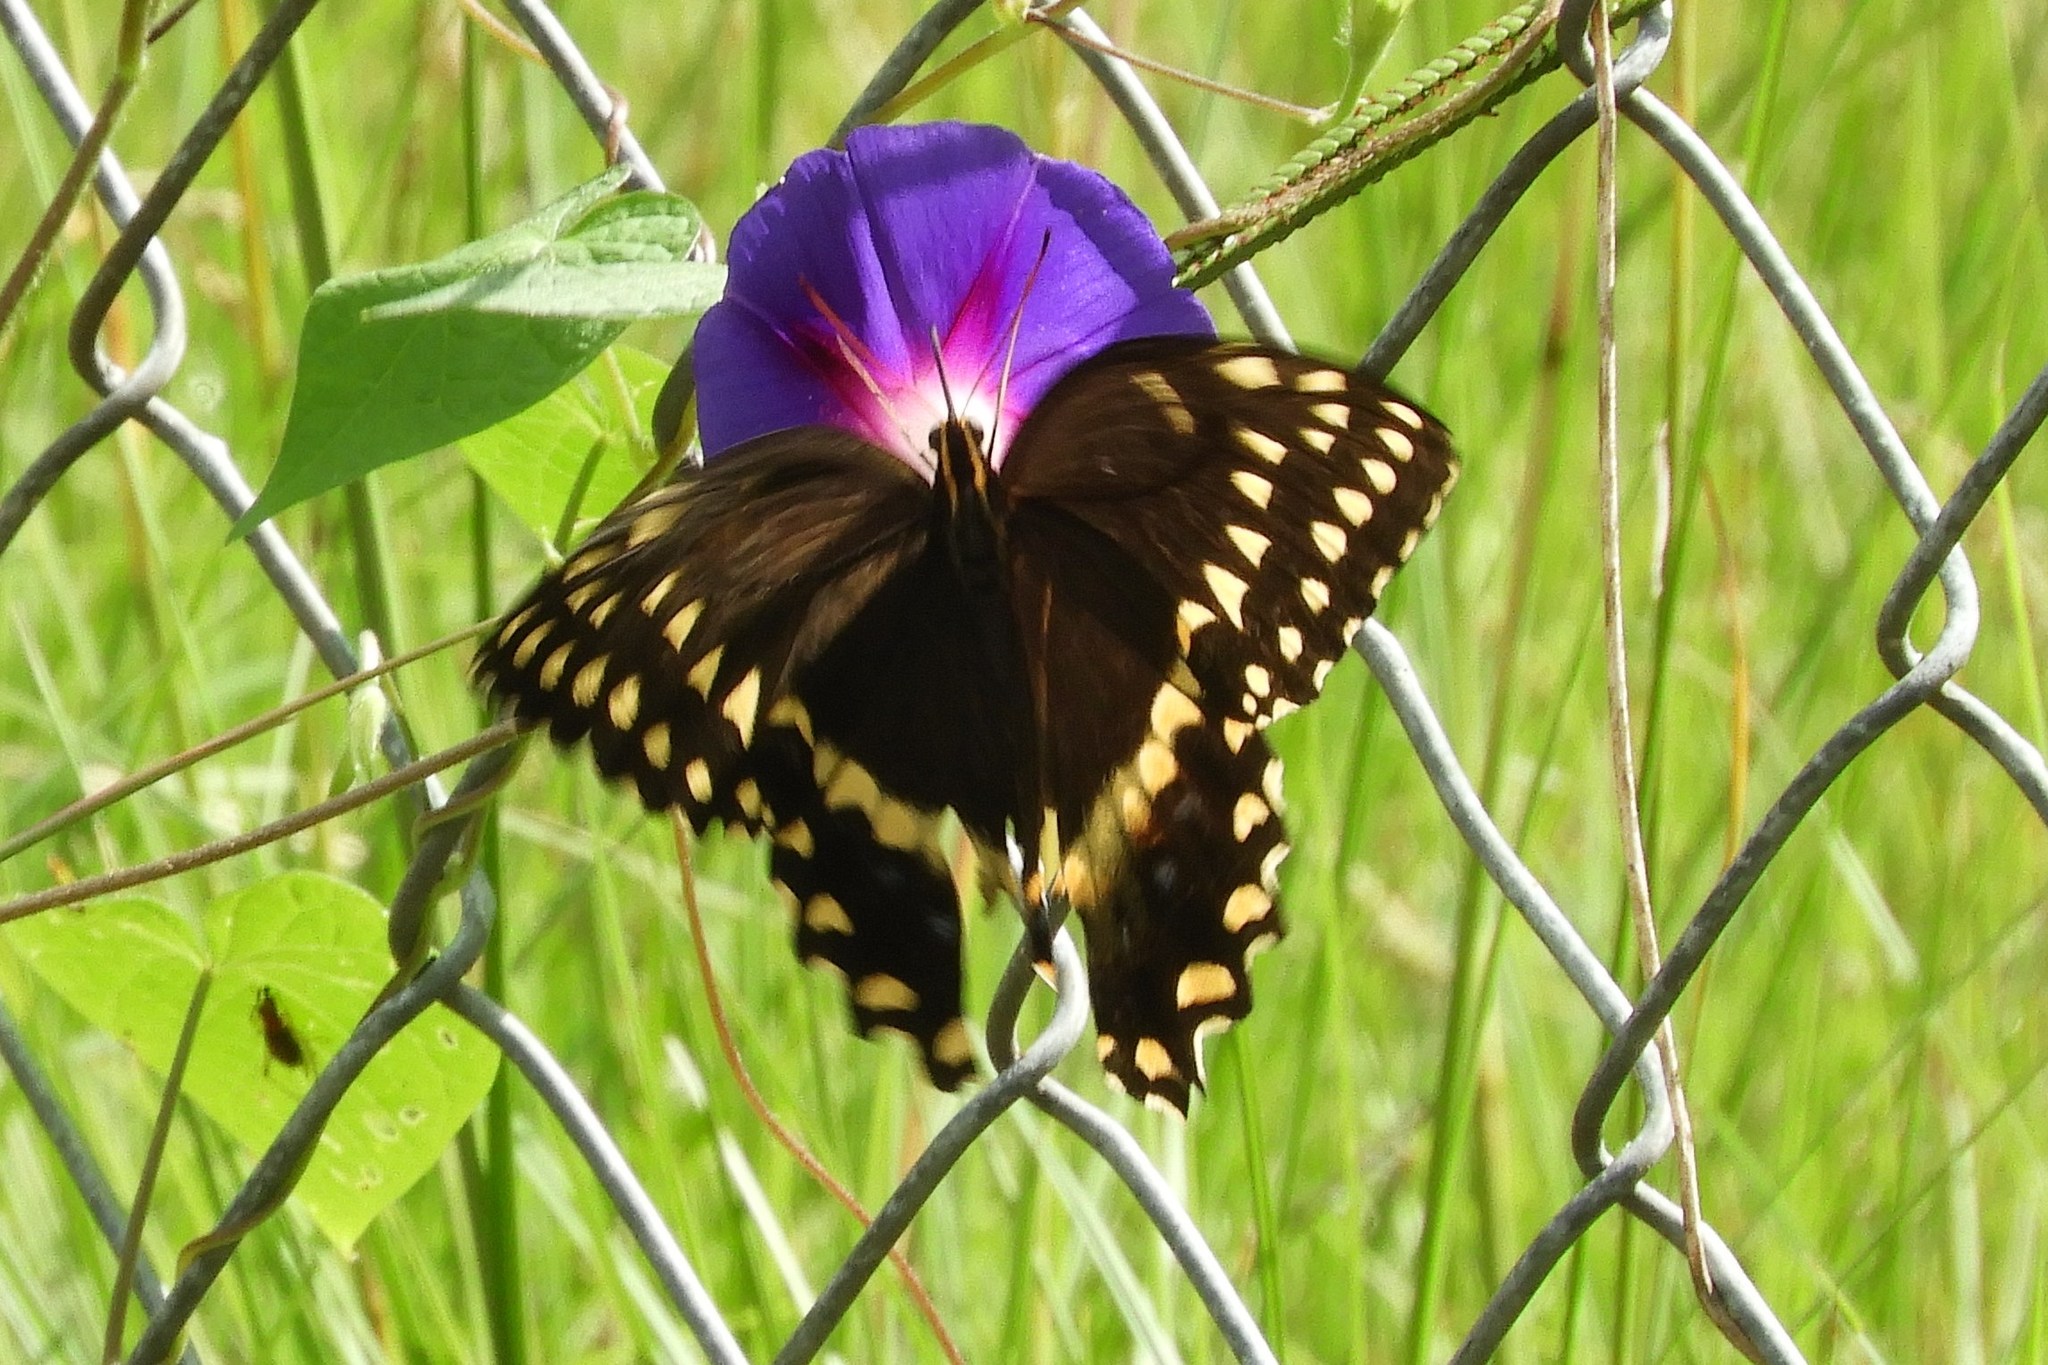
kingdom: Animalia
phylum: Arthropoda
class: Insecta
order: Lepidoptera
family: Papilionidae
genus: Papilio
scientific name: Papilio palamedes
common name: Palamedes swallowtail
